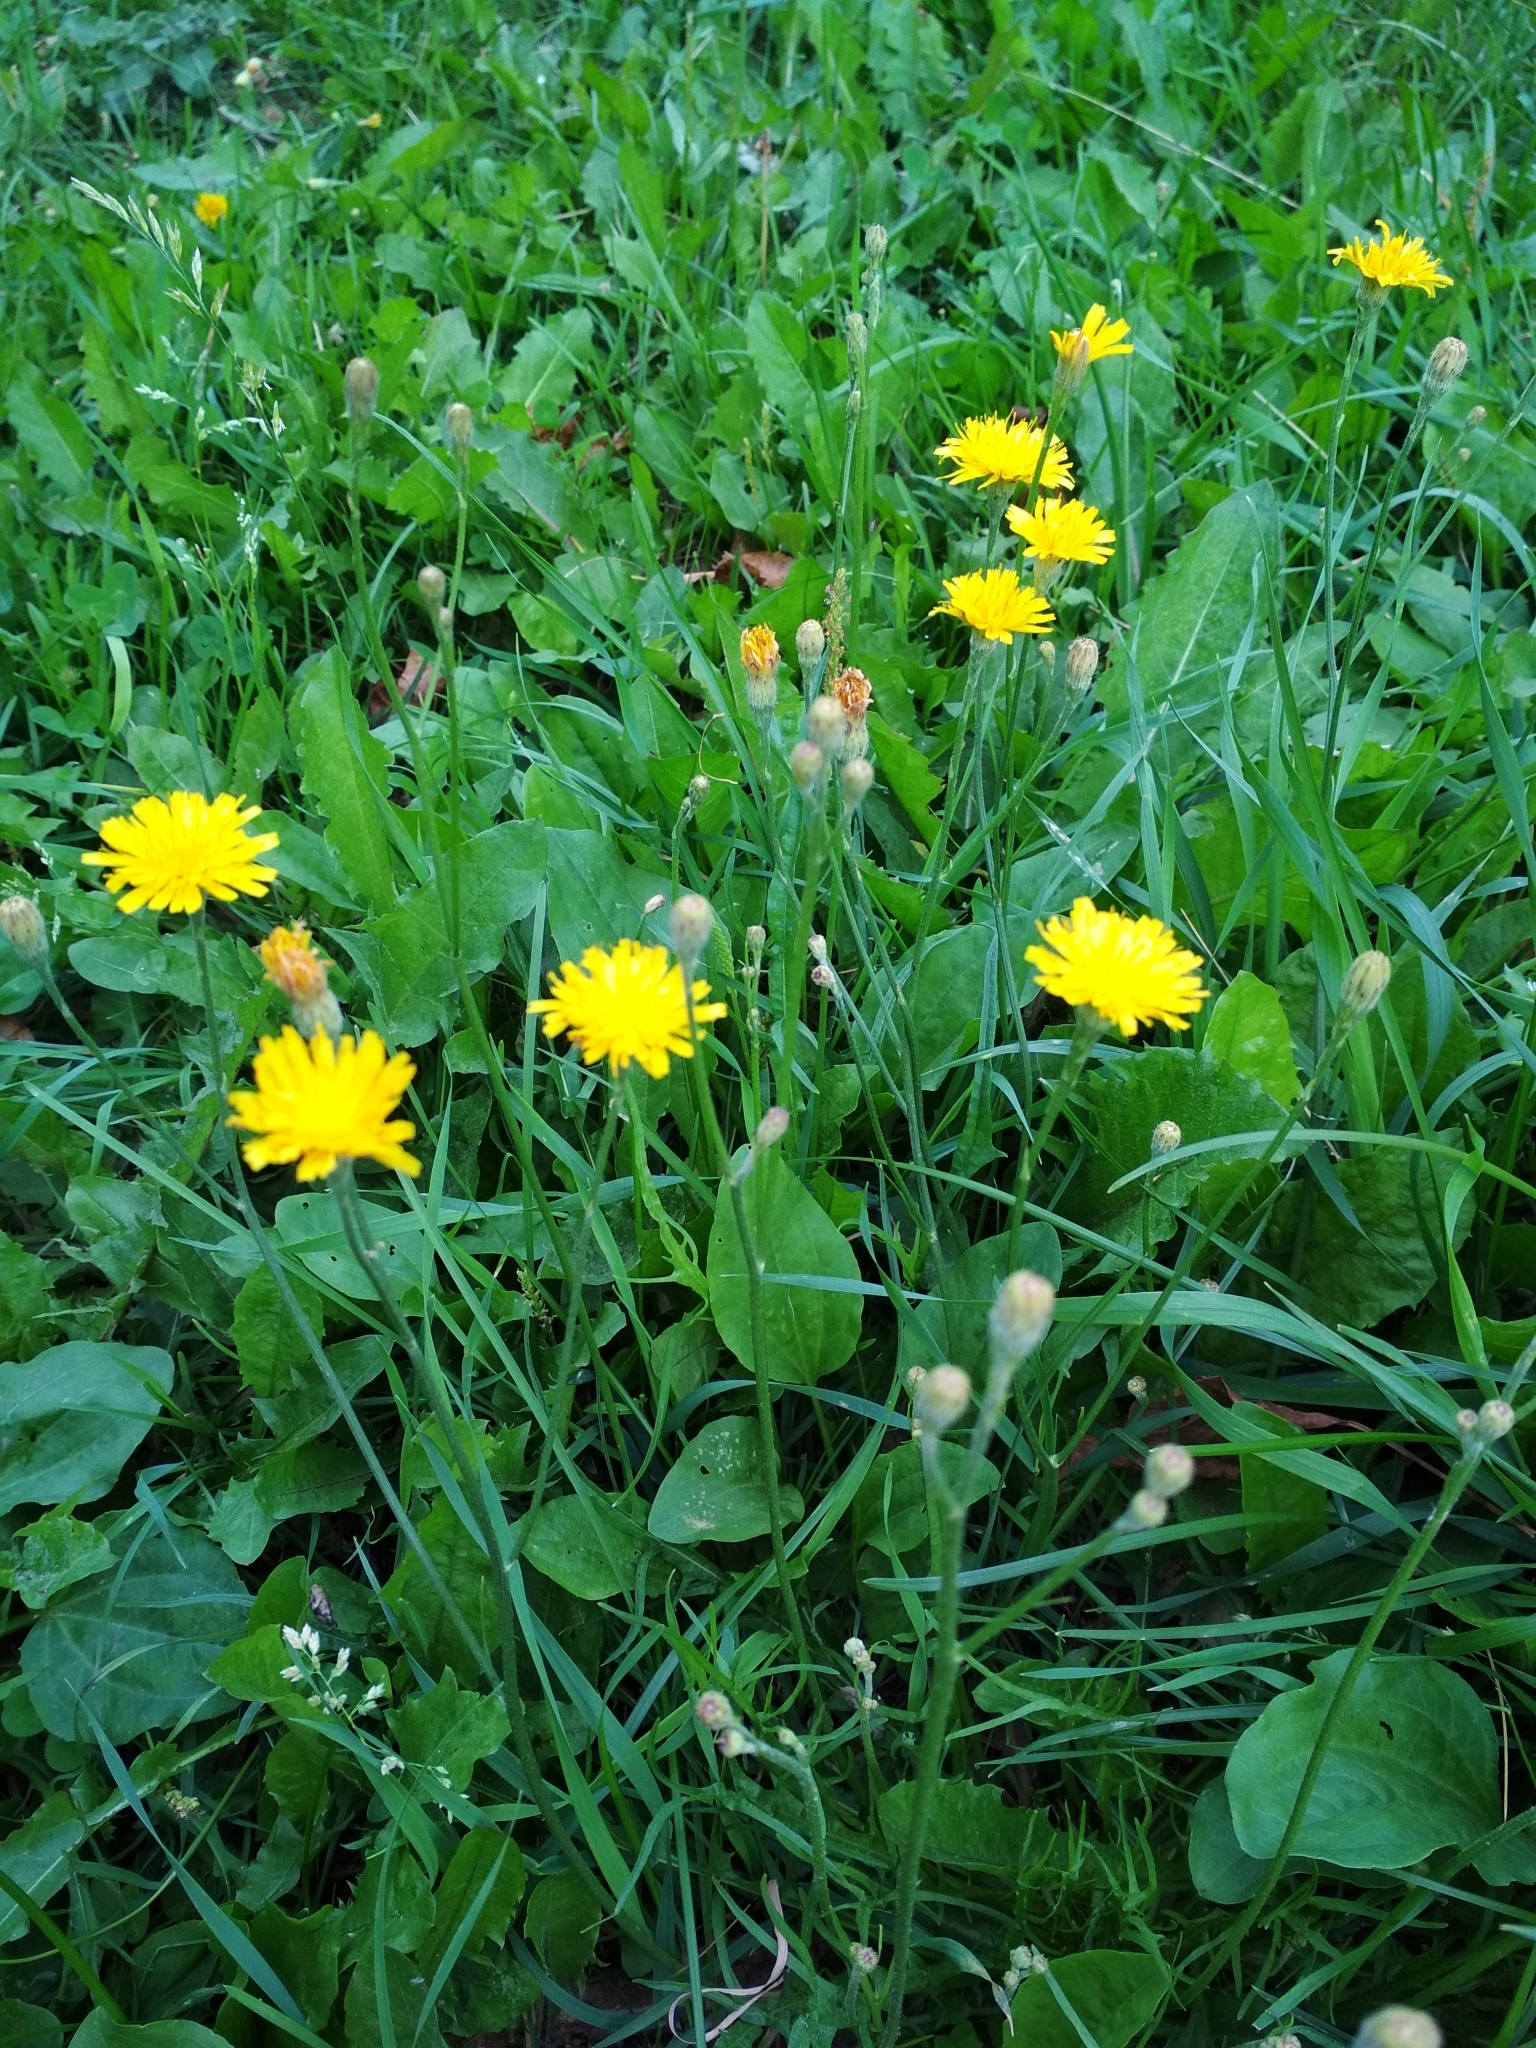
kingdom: Plantae
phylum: Tracheophyta
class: Magnoliopsida
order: Asterales
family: Asteraceae
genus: Scorzoneroides
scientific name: Scorzoneroides autumnalis
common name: Autumn hawkbit
